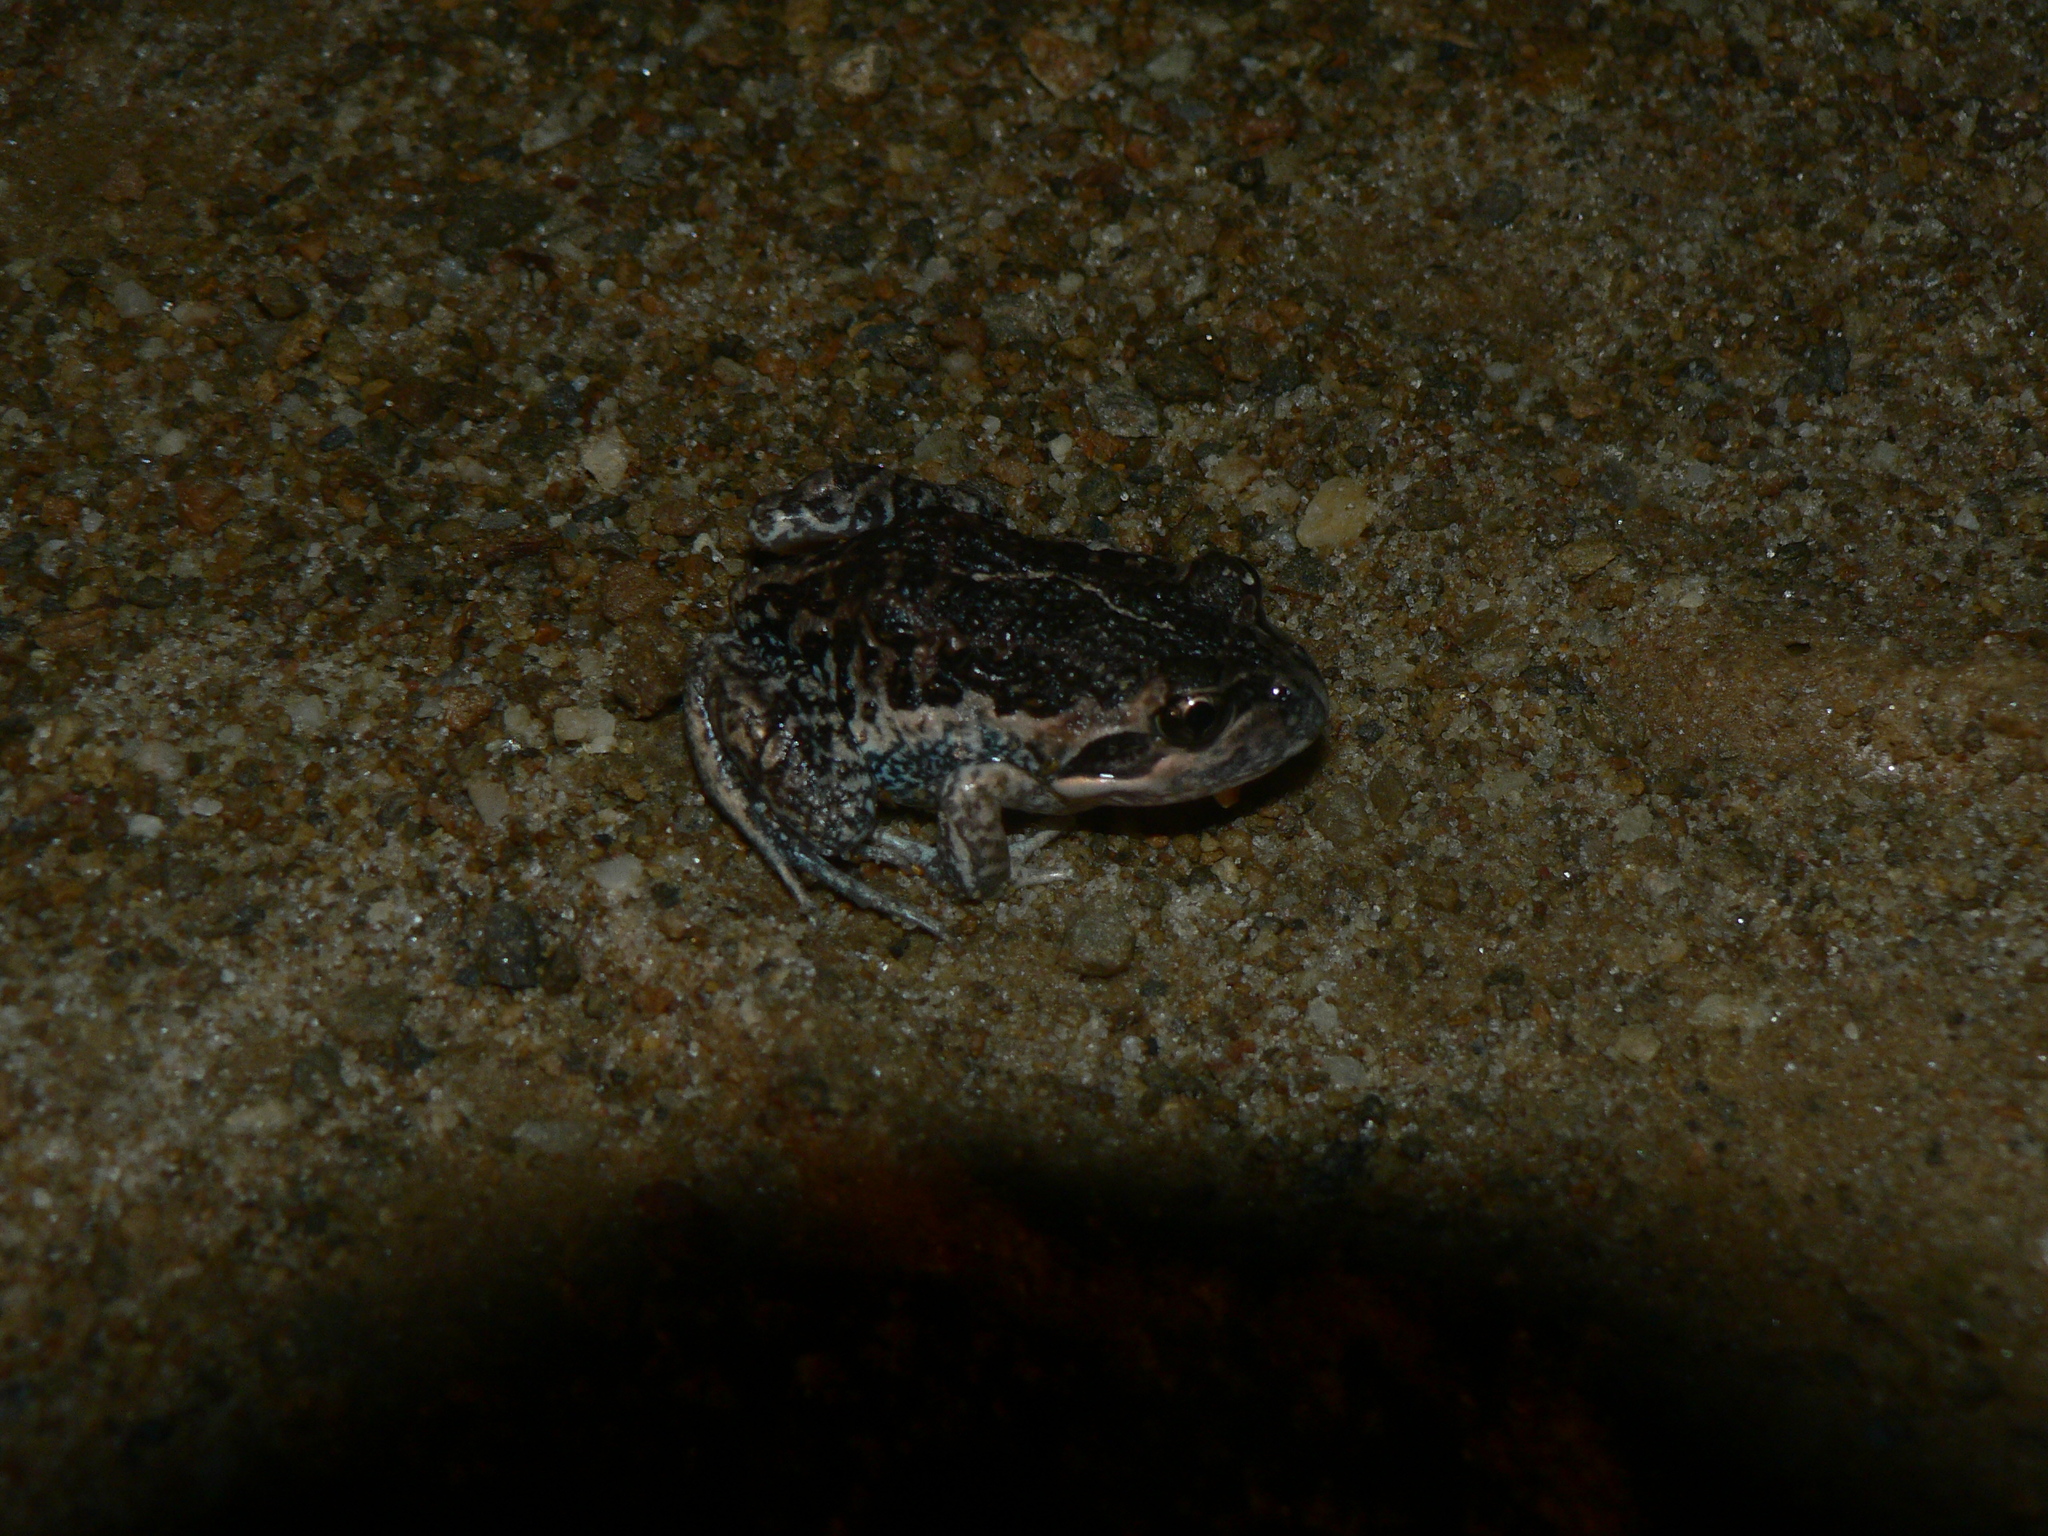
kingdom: Animalia
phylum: Chordata
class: Amphibia
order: Anura
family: Limnodynastidae
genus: Limnodynastes
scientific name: Limnodynastes dumerilii
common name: Banjo frog
